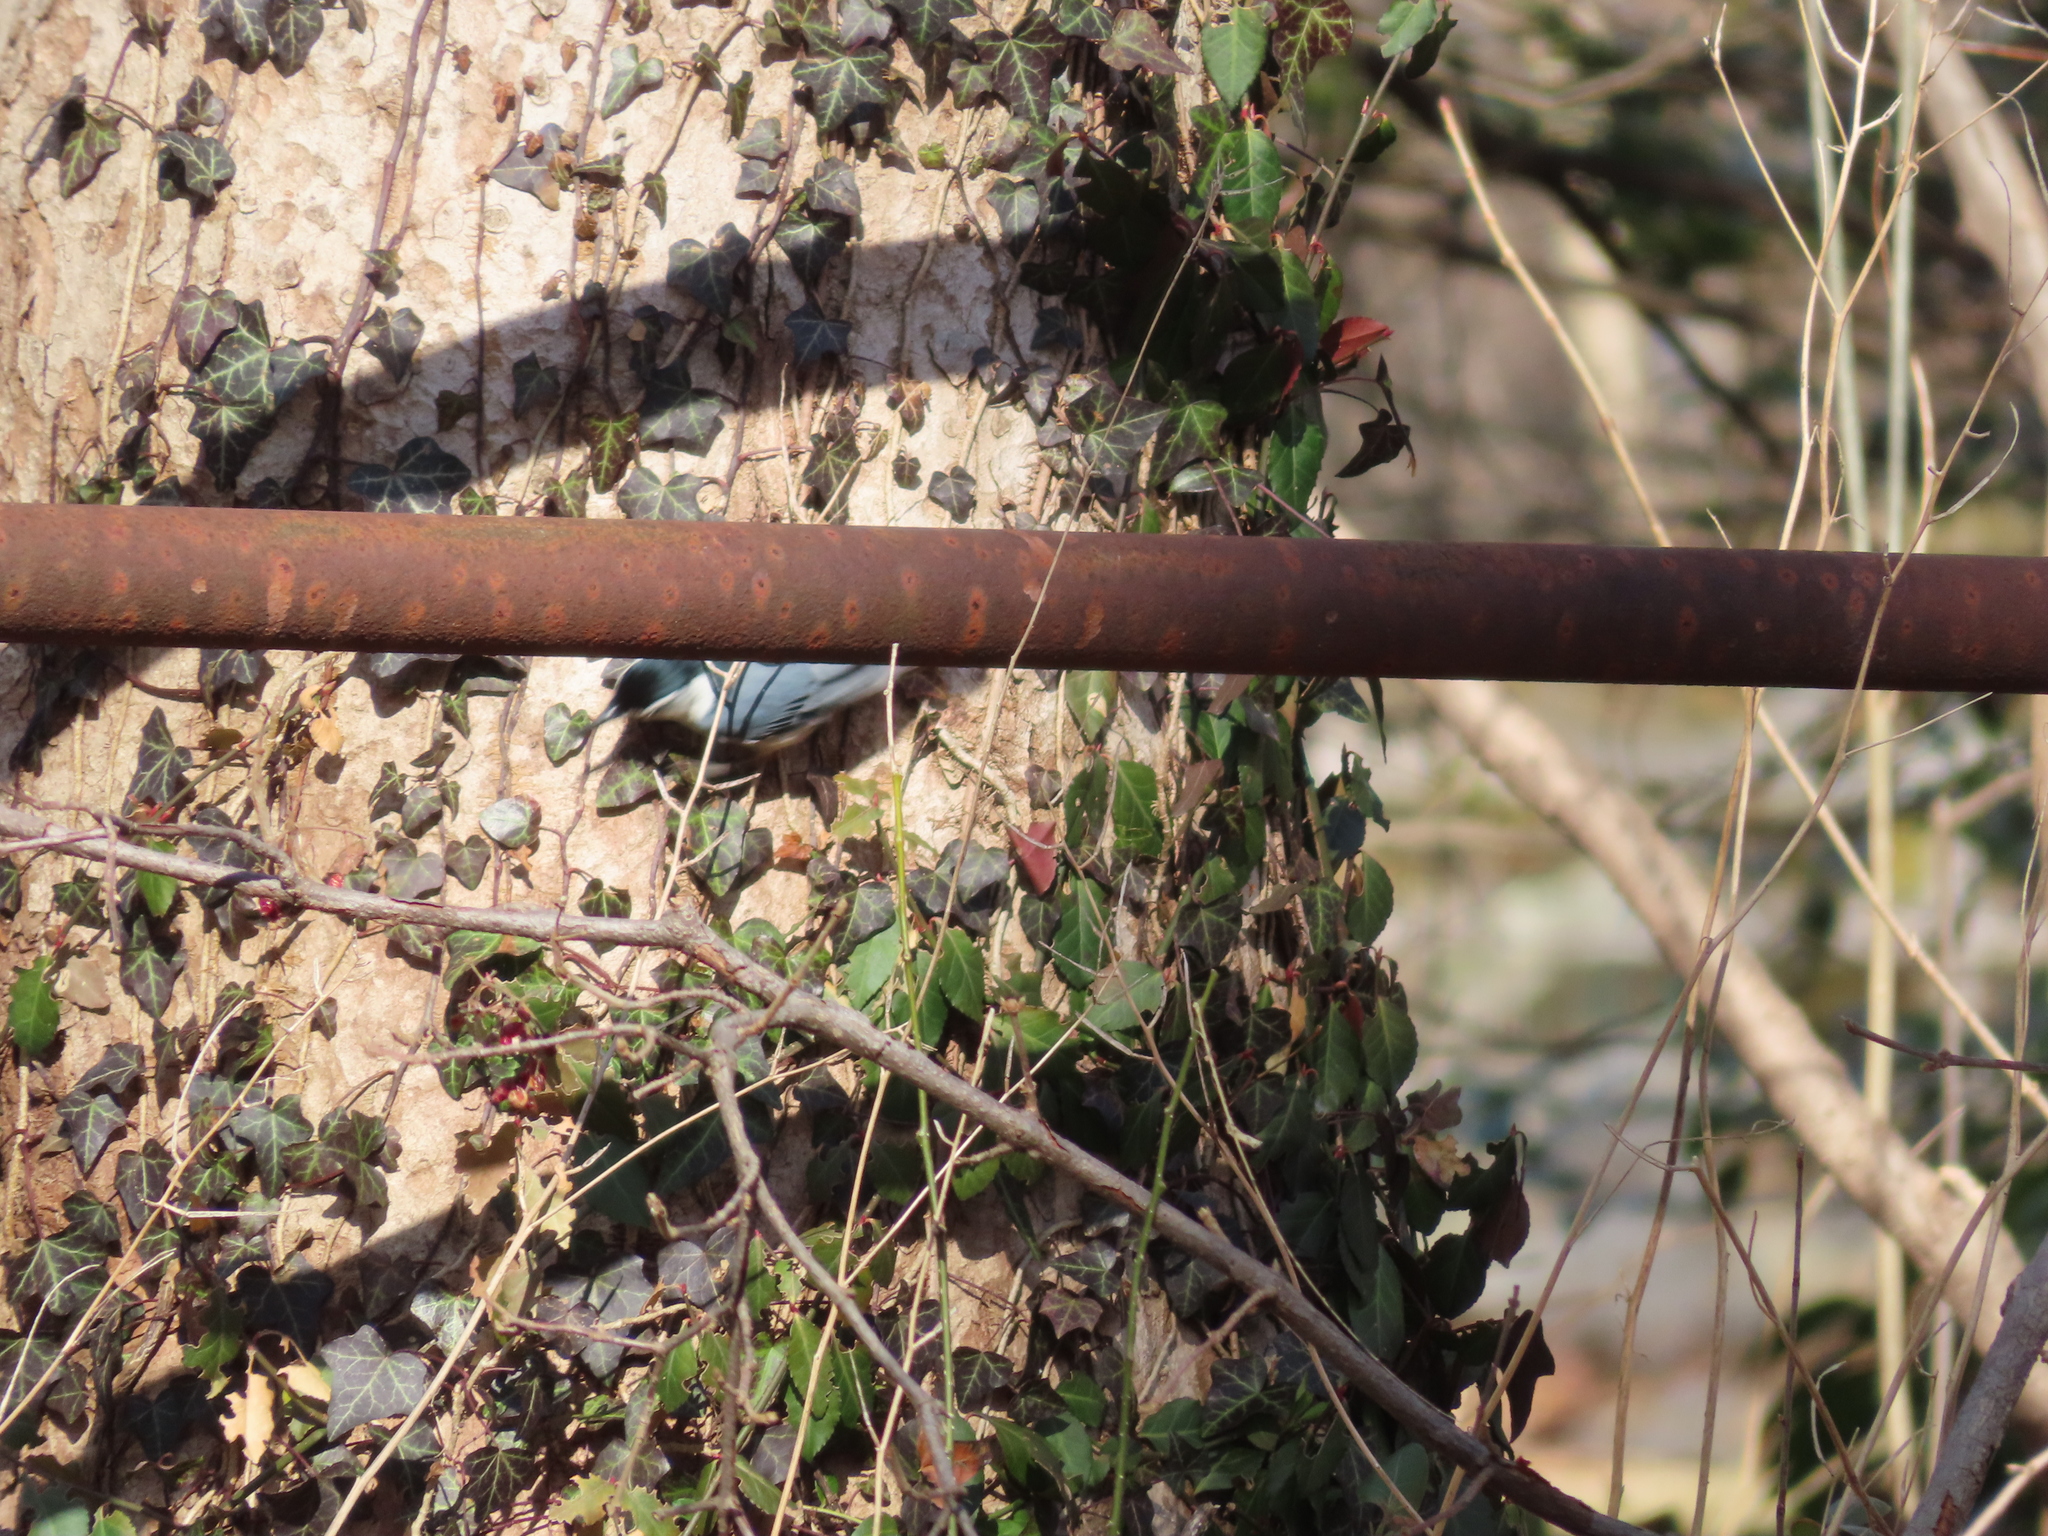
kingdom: Animalia
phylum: Chordata
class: Aves
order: Passeriformes
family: Sittidae
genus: Sitta
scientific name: Sitta carolinensis
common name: White-breasted nuthatch
